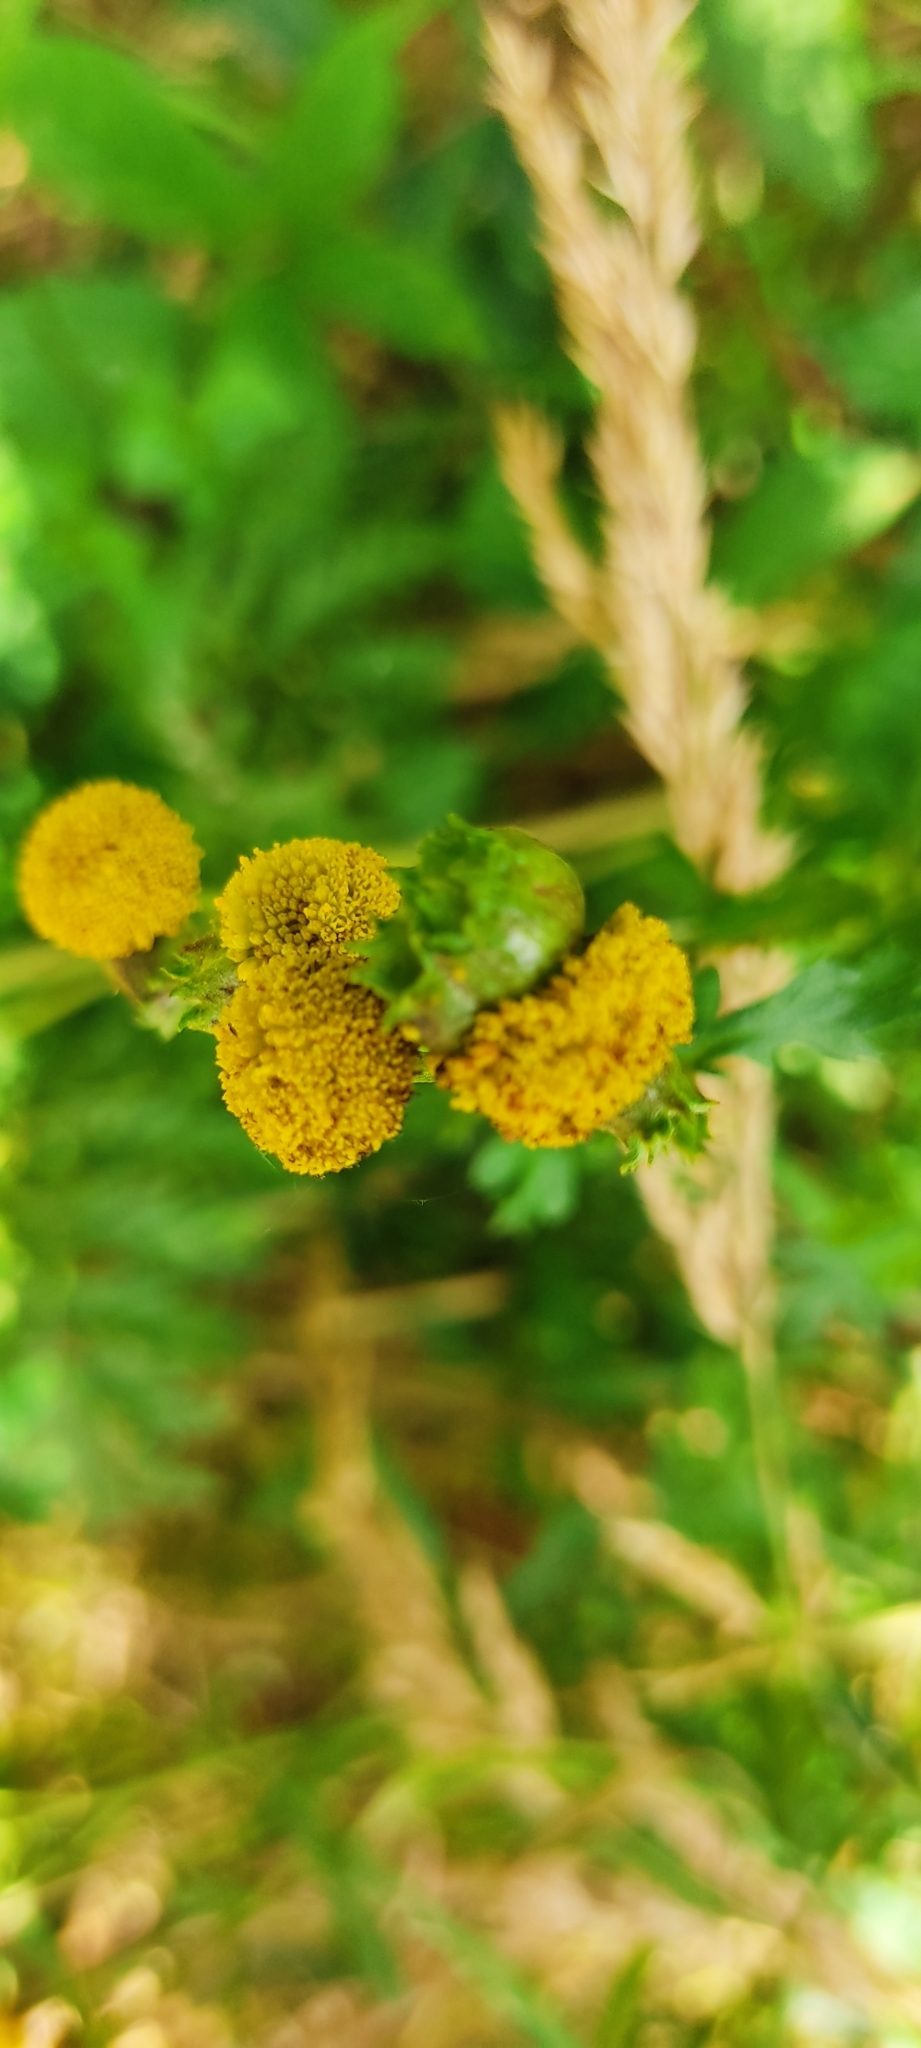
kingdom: Animalia
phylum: Arthropoda
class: Insecta
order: Diptera
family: Cecidomyiidae
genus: Rhopalomyia
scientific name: Rhopalomyia tanaceticolus
